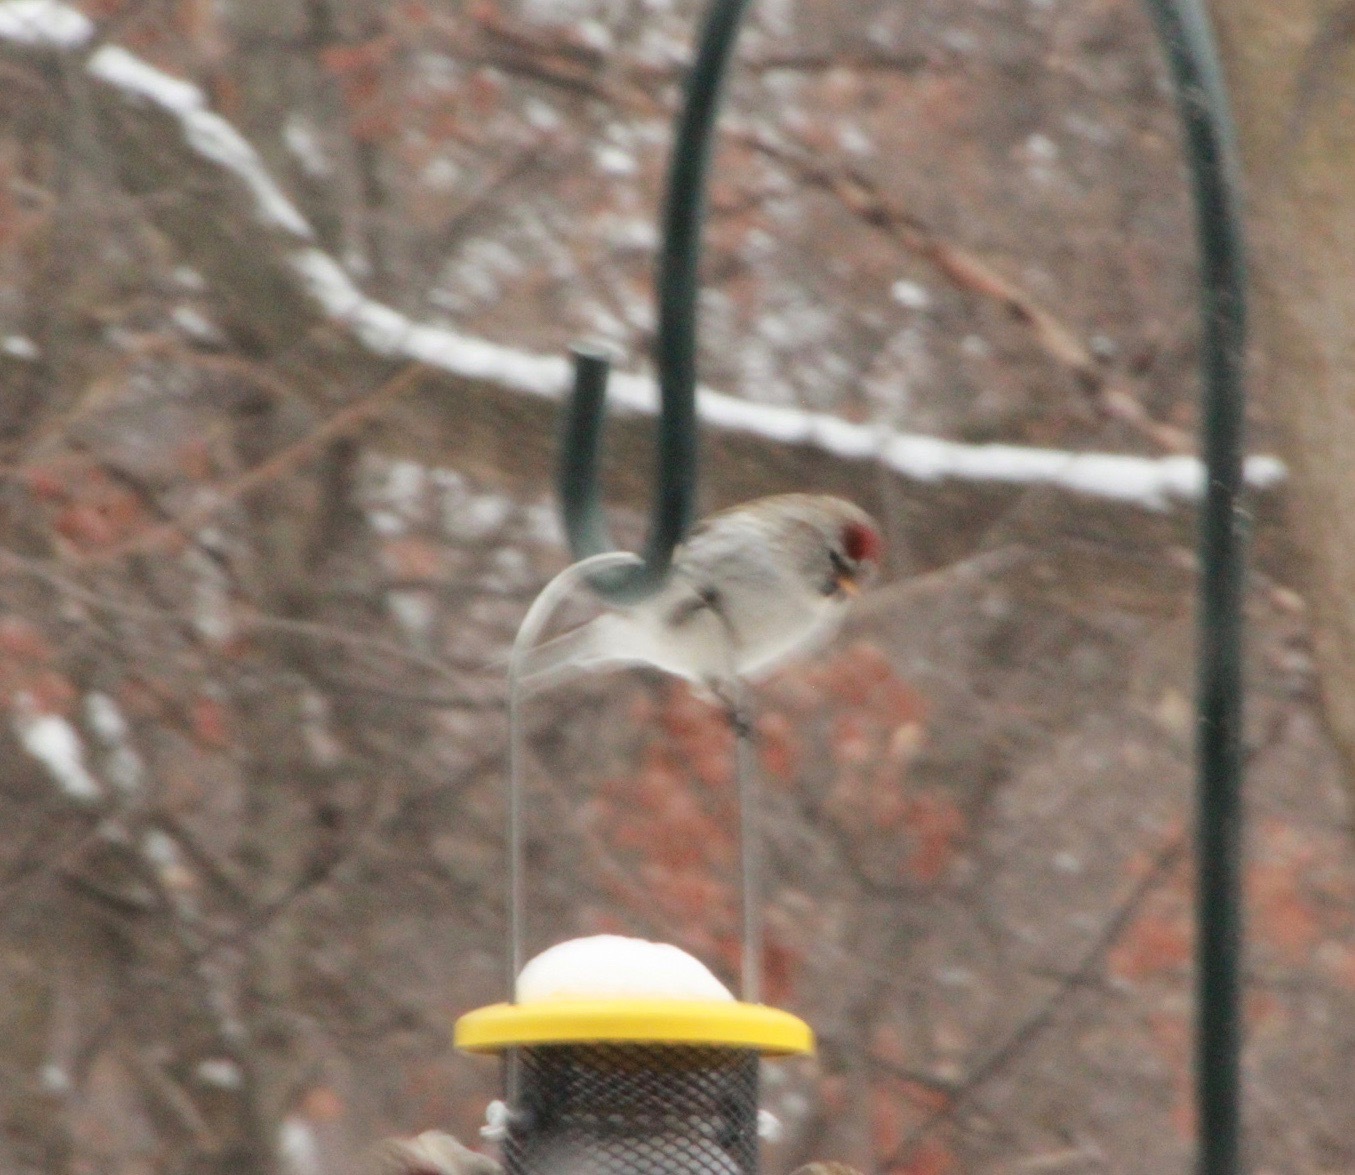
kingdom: Animalia
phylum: Chordata
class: Aves
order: Passeriformes
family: Fringillidae
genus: Acanthis
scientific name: Acanthis hornemanni
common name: Arctic redpoll
